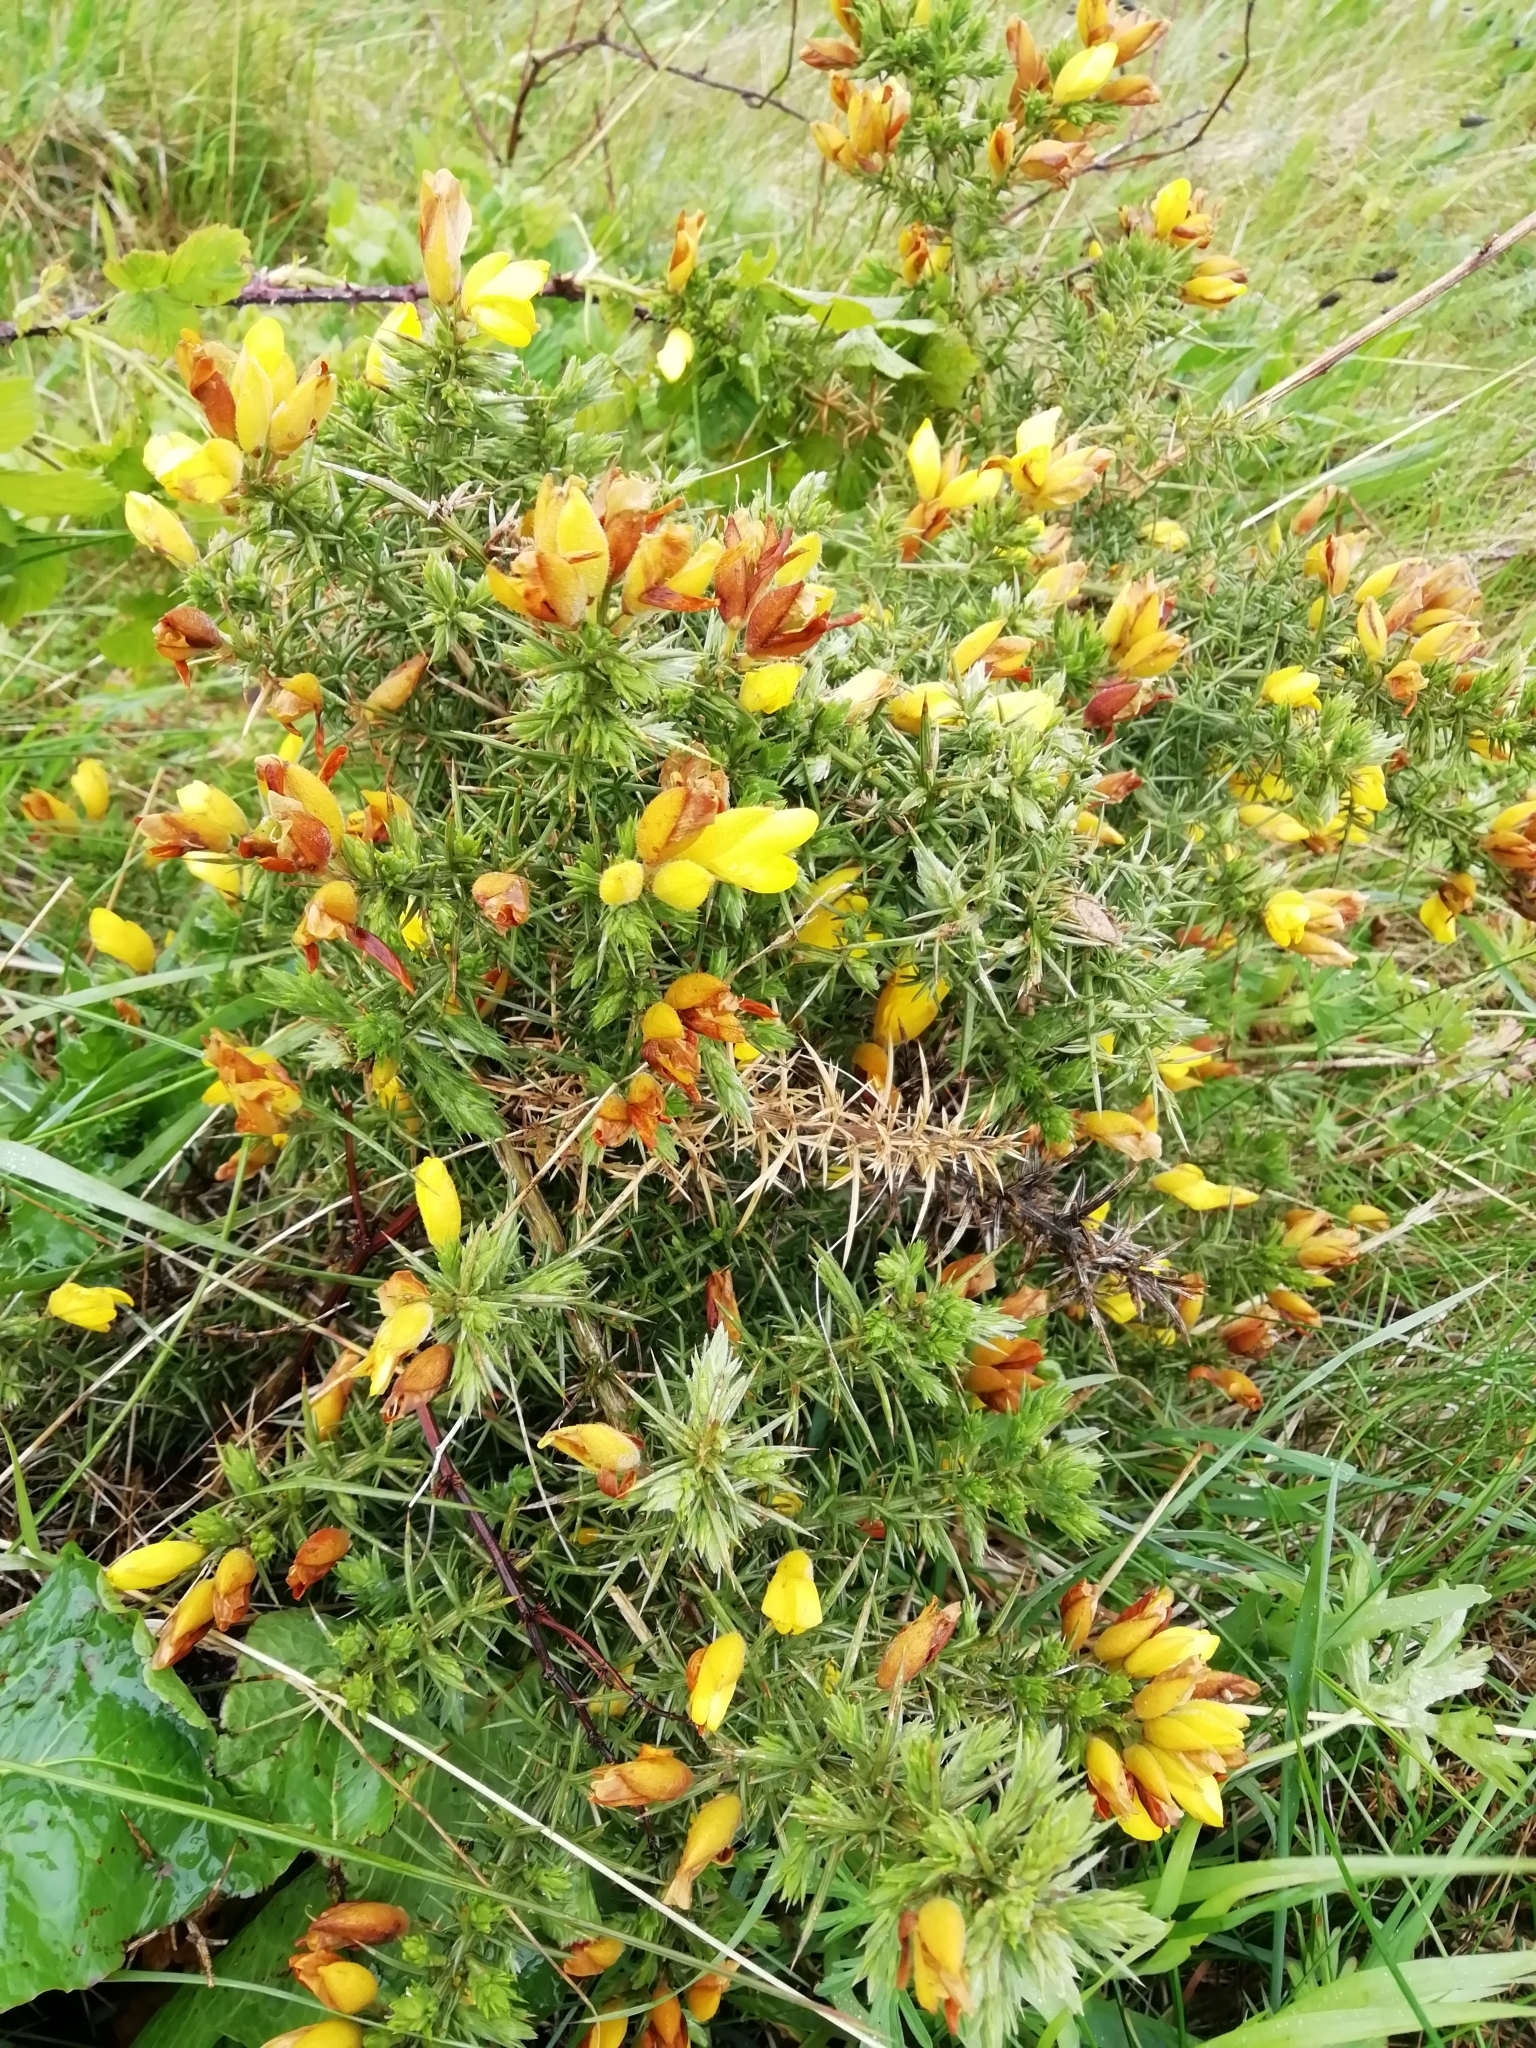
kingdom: Plantae
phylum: Tracheophyta
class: Magnoliopsida
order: Fabales
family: Fabaceae
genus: Ulex
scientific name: Ulex europaeus
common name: Common gorse
